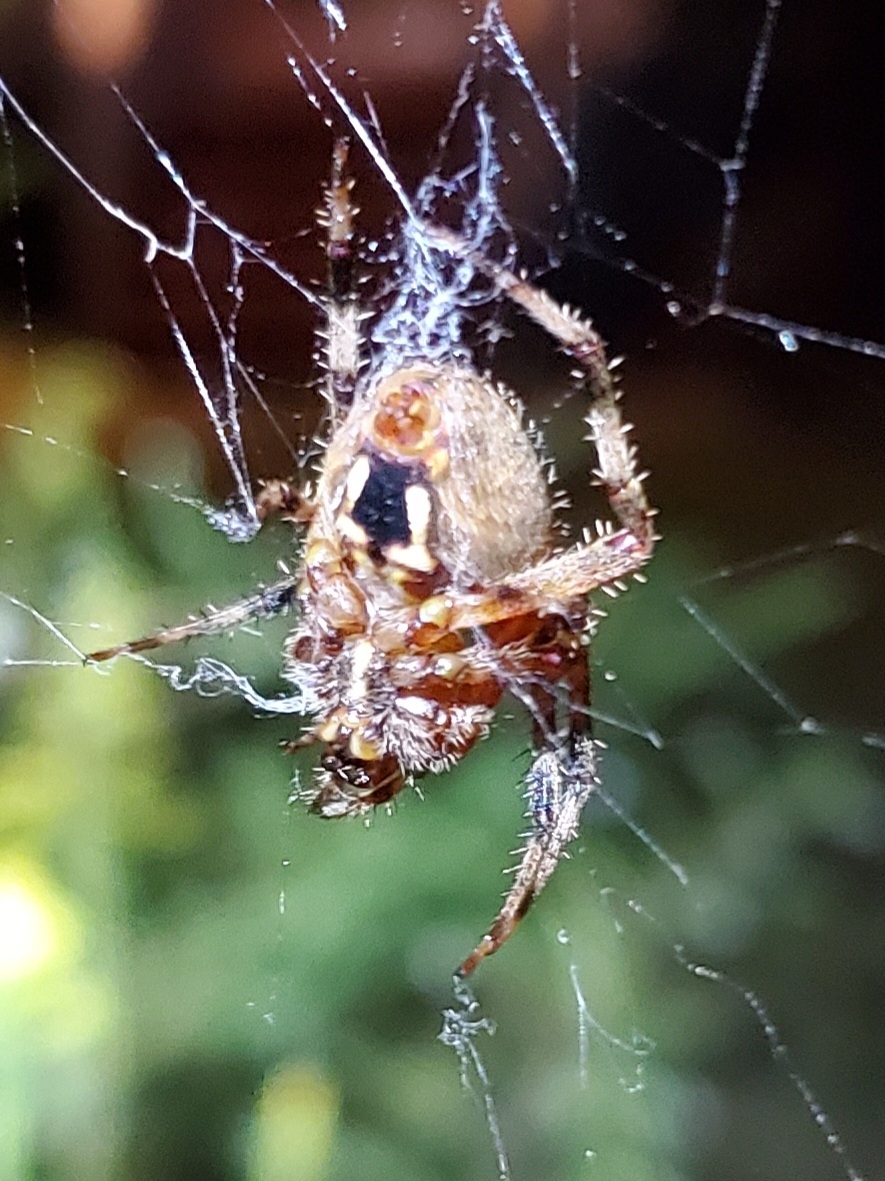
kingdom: Animalia
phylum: Arthropoda
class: Arachnida
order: Araneae
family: Araneidae
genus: Neoscona
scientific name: Neoscona crucifera
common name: Spotted orbweaver
